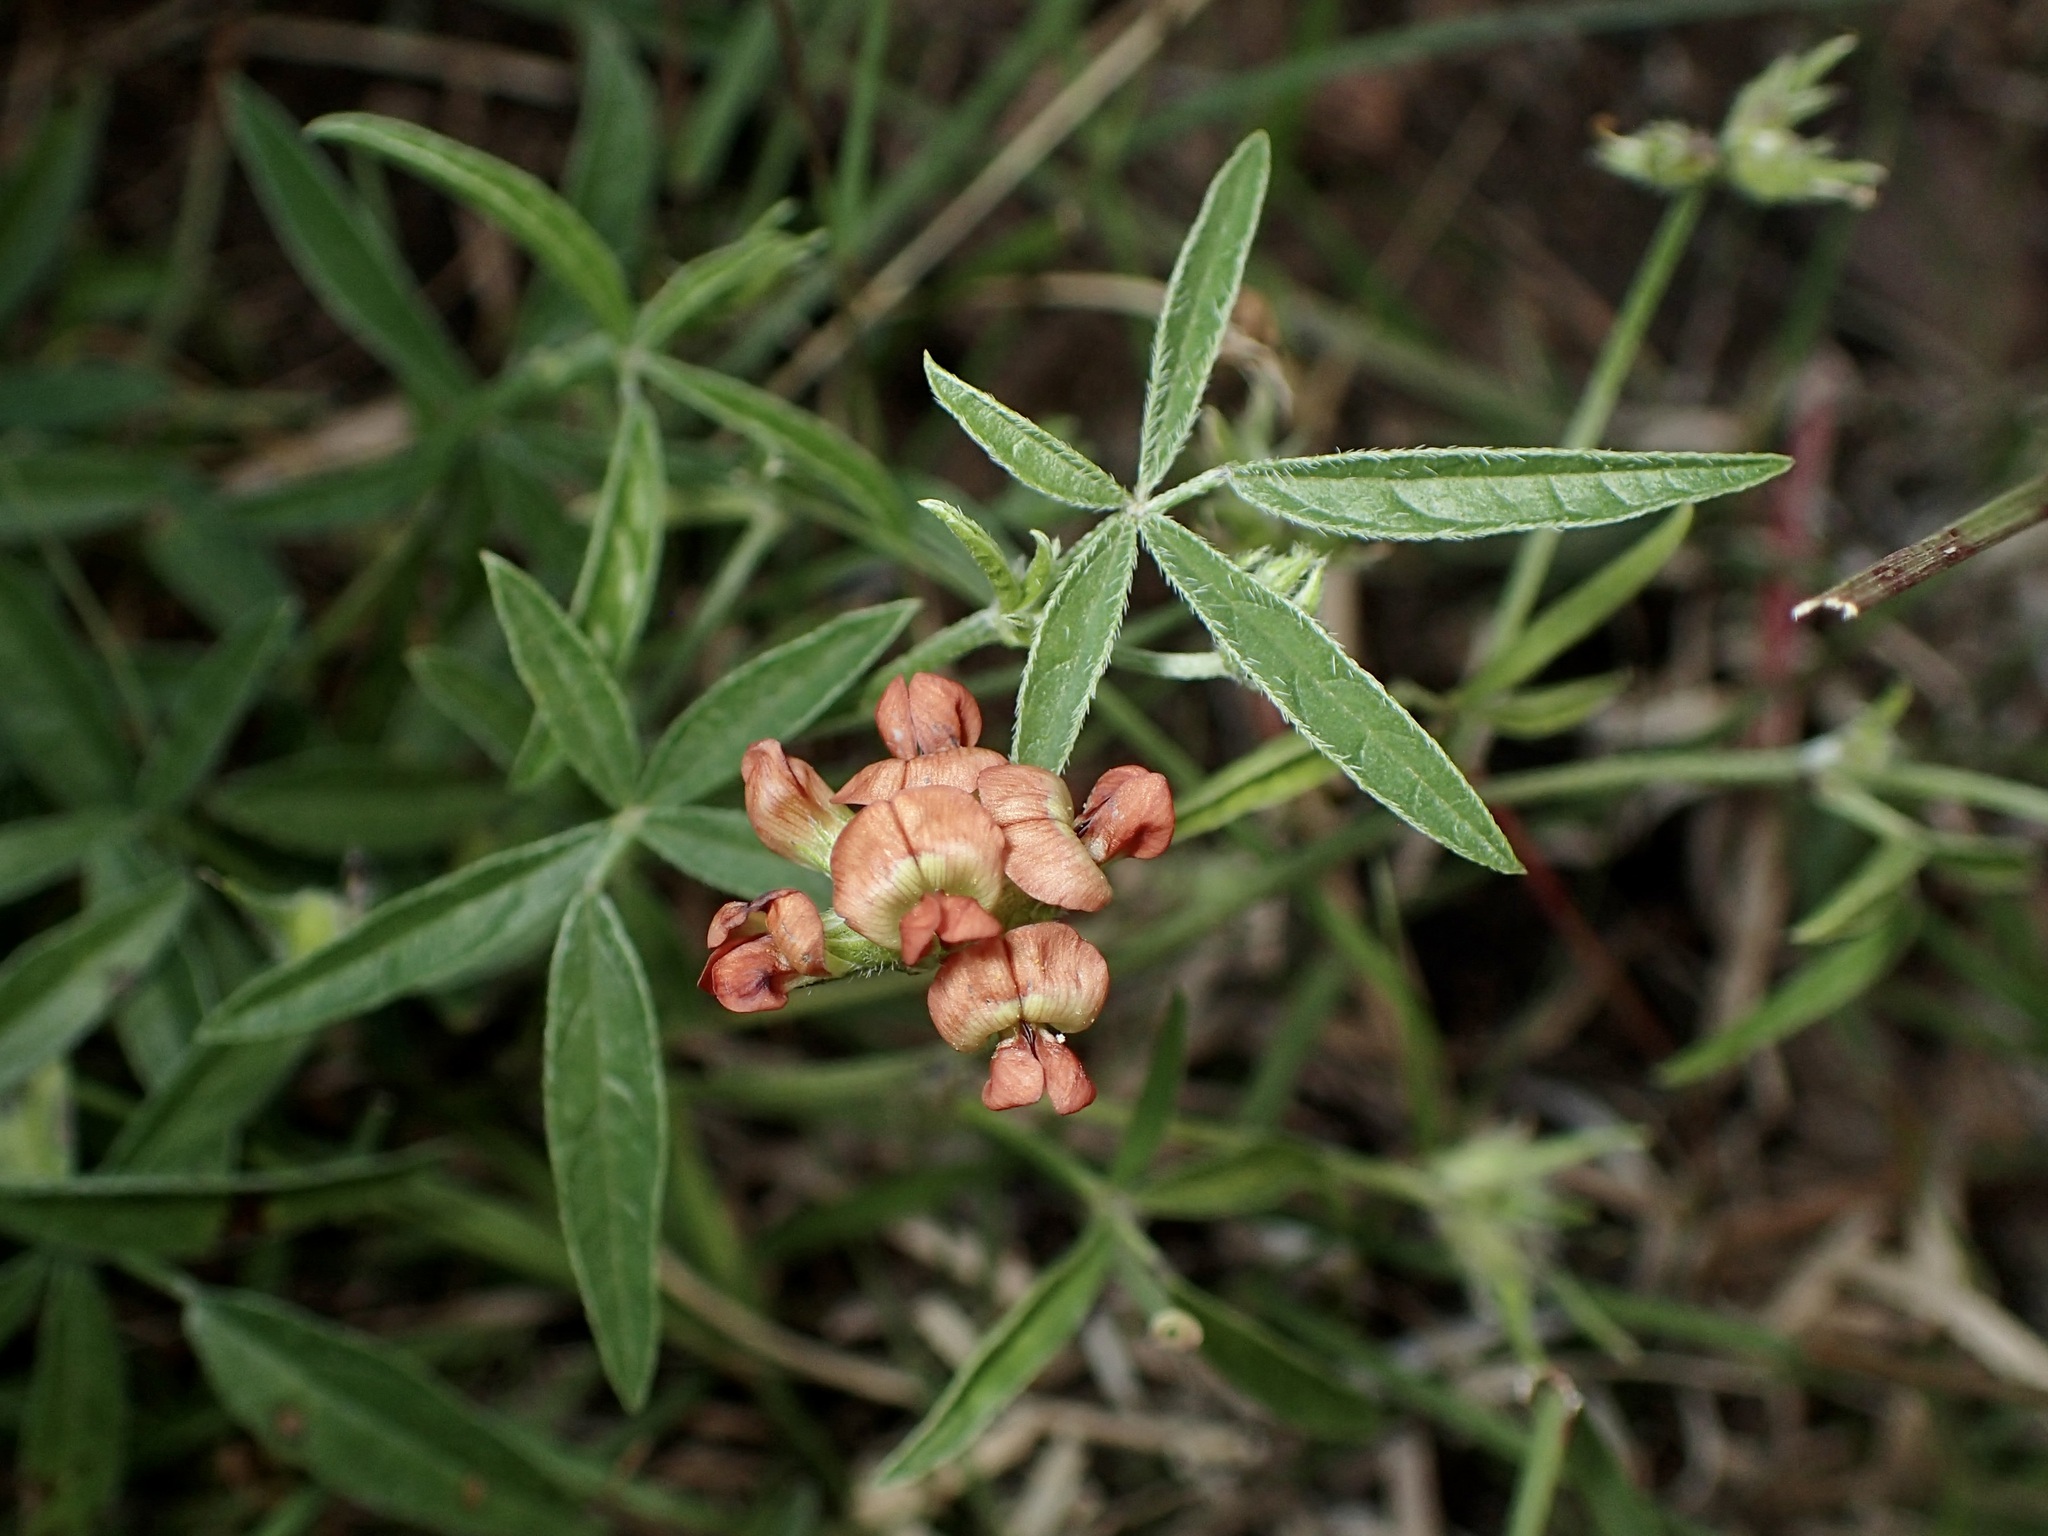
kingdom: Plantae
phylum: Tracheophyta
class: Magnoliopsida
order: Fabales
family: Fabaceae
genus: Pediomelum
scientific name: Pediomelum palmeri
